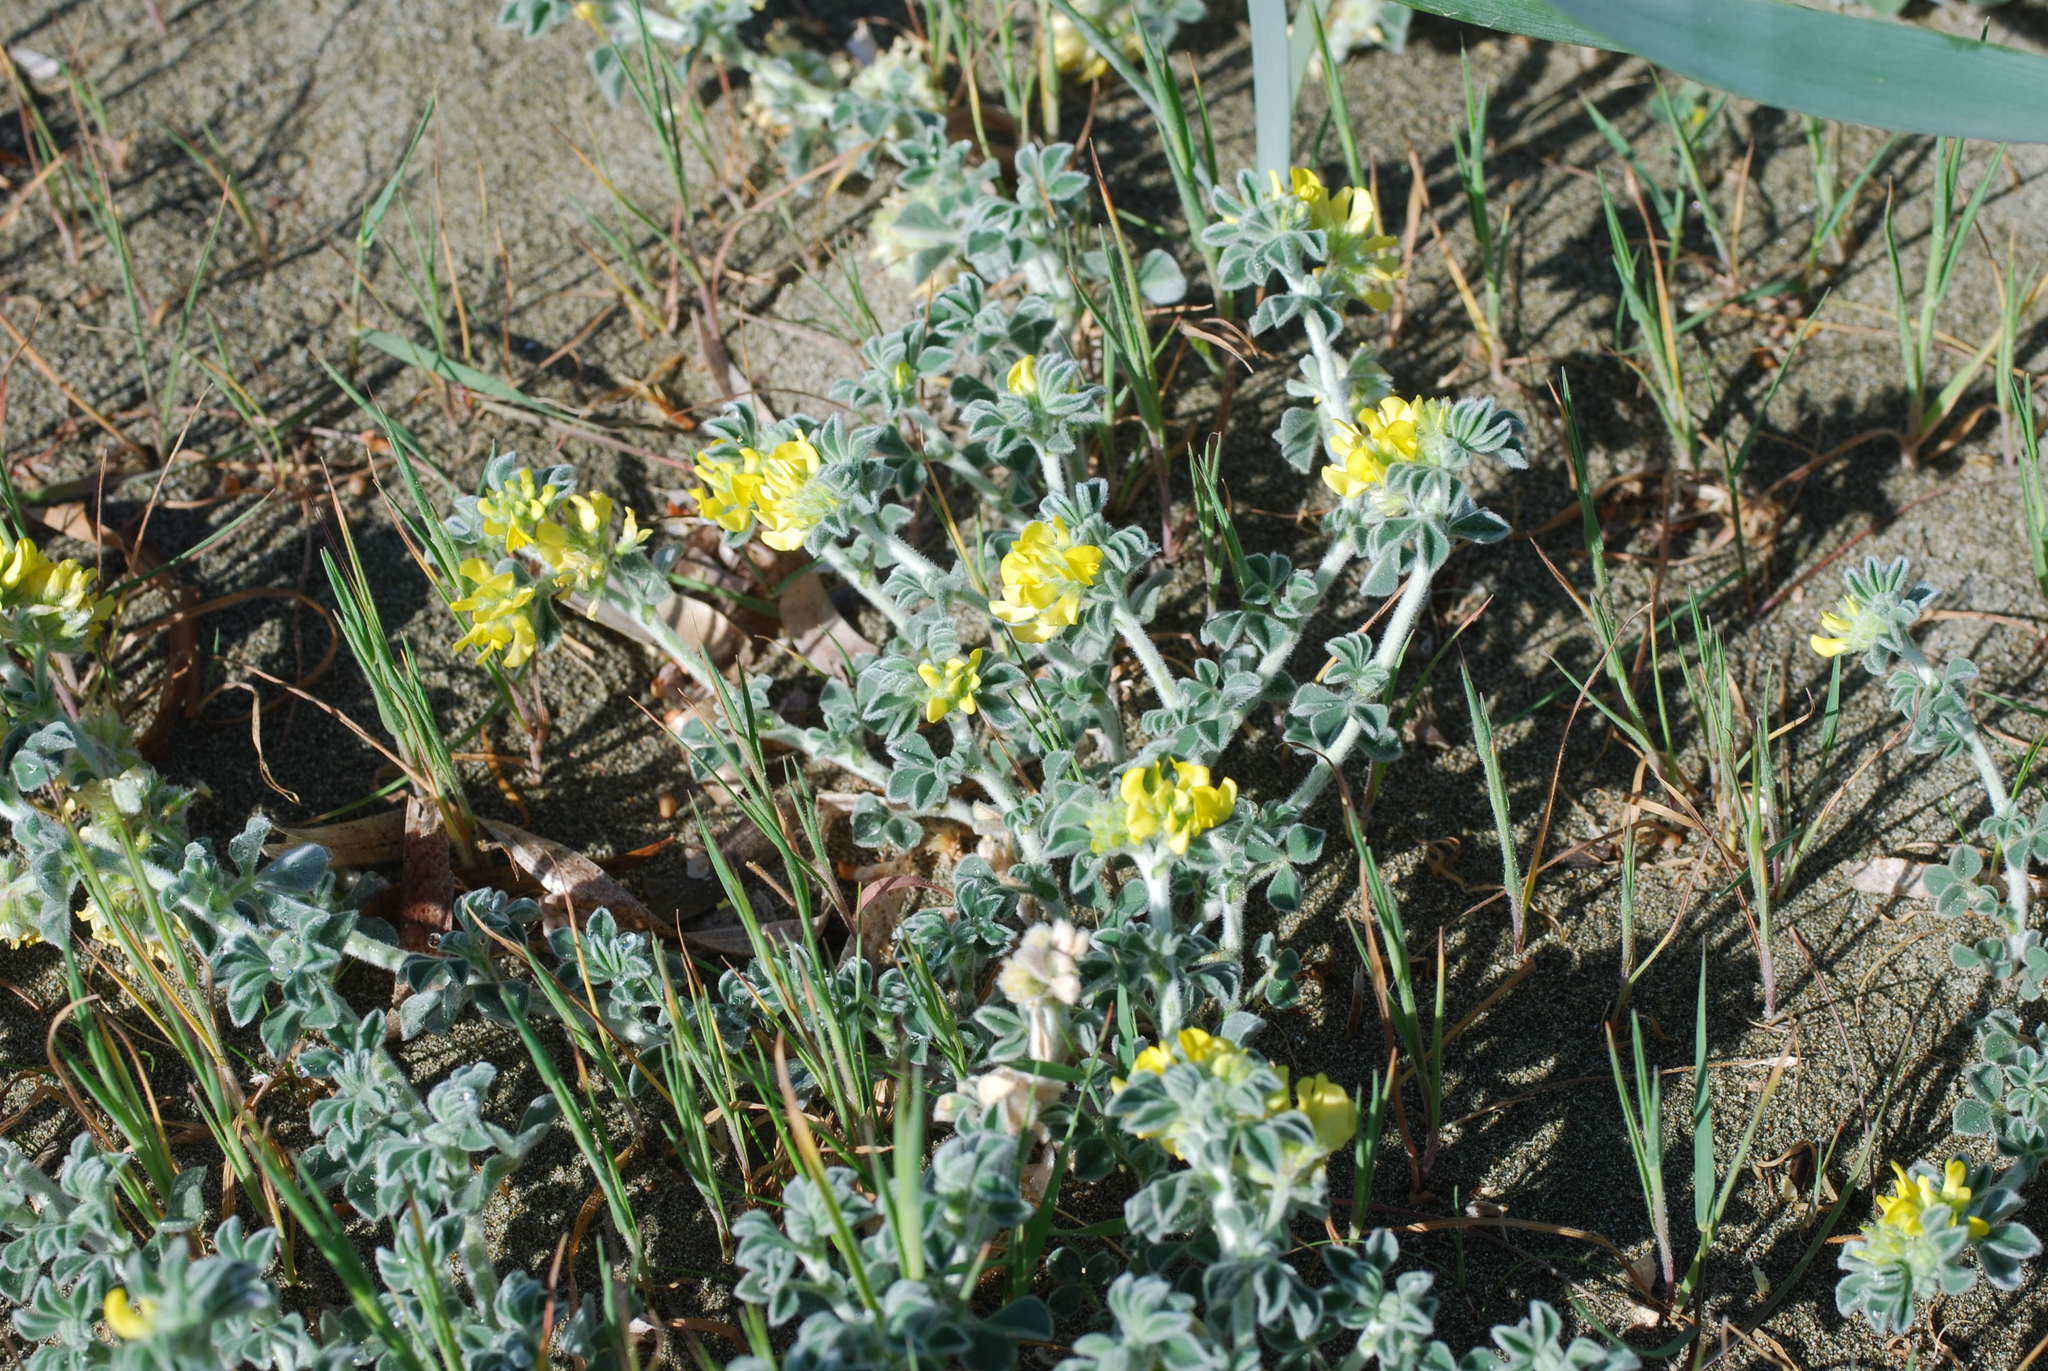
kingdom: Plantae
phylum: Tracheophyta
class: Magnoliopsida
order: Fabales
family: Fabaceae
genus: Medicago
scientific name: Medicago marina
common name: Sea medick
